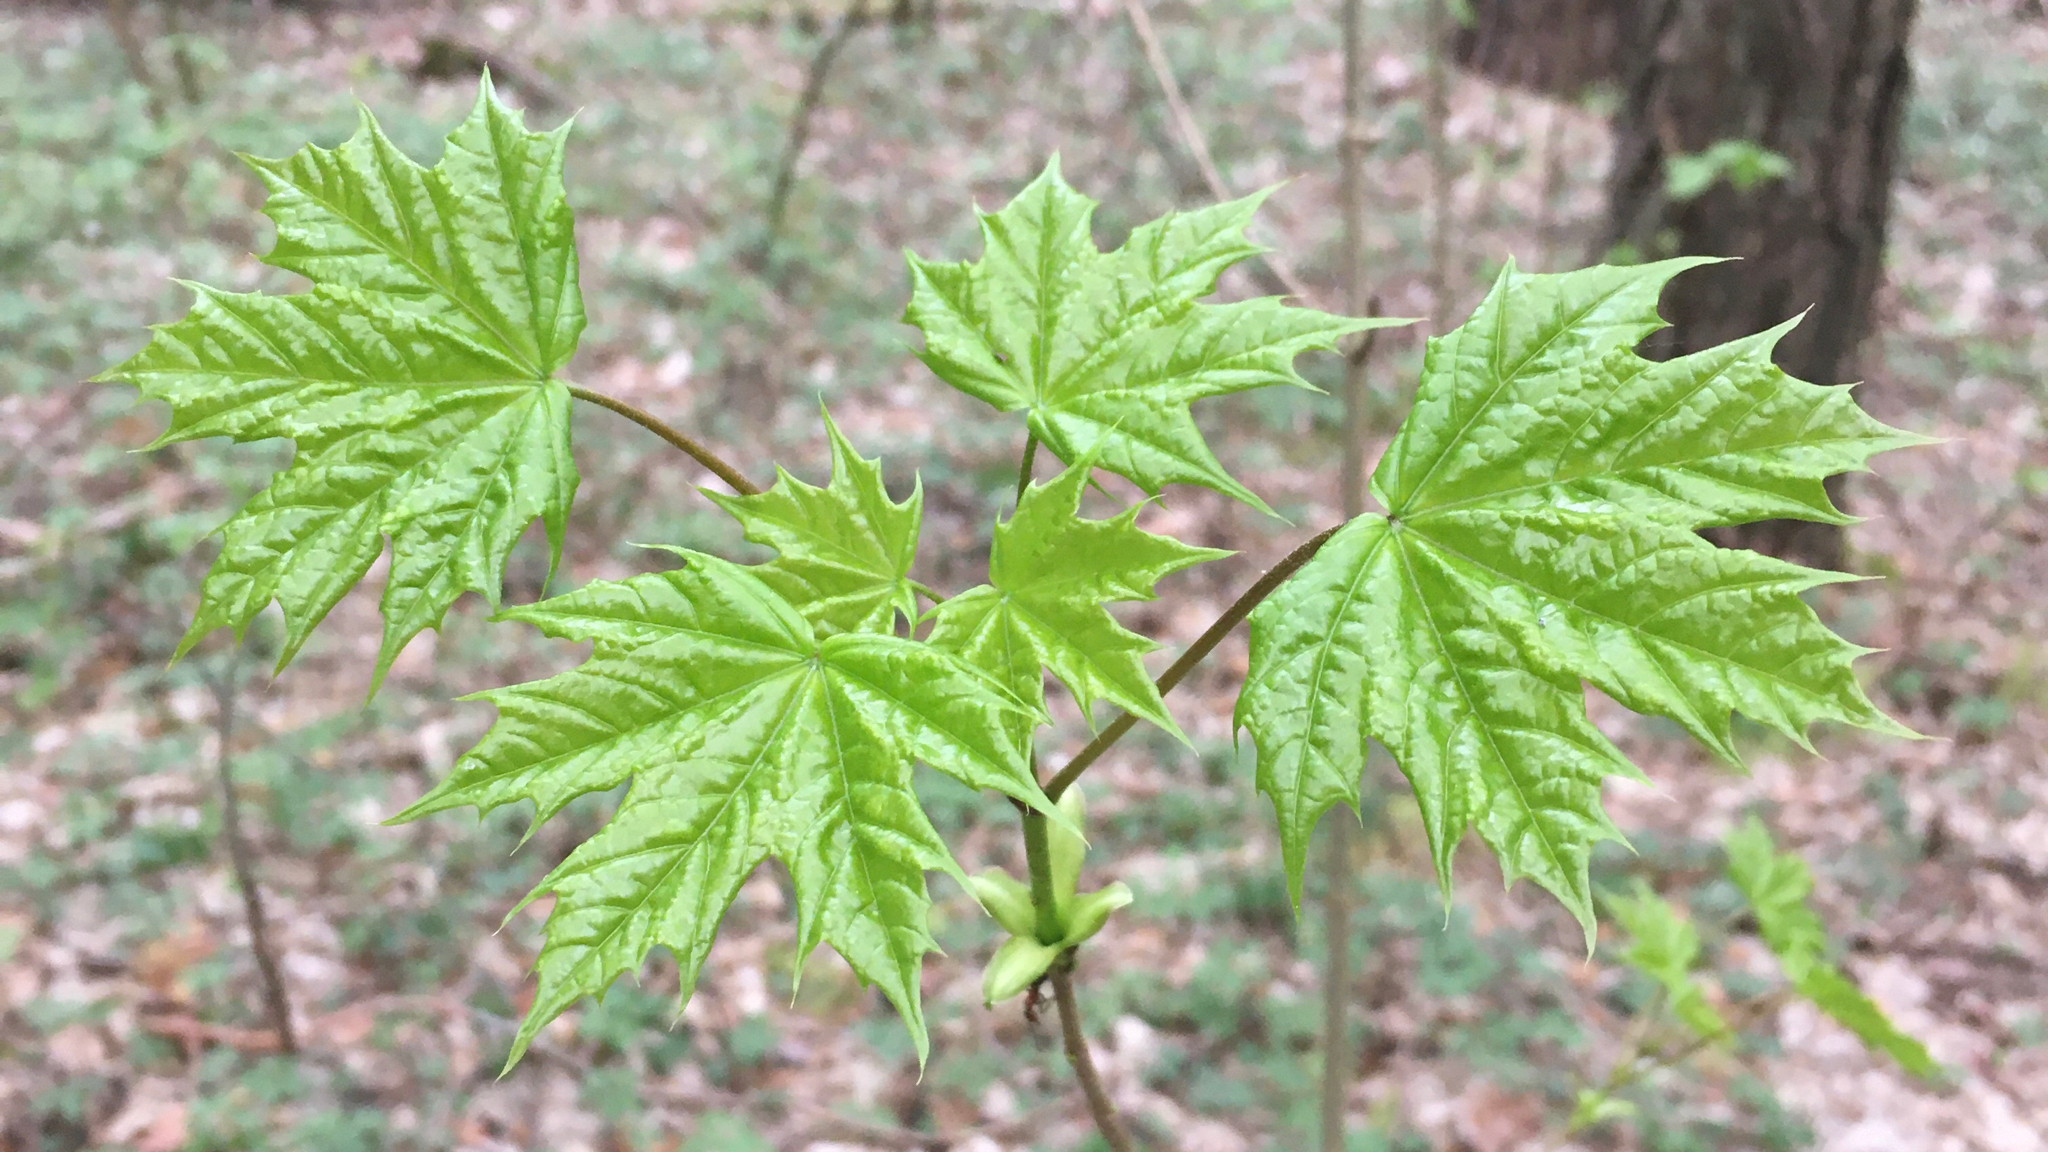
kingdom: Plantae
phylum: Tracheophyta
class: Magnoliopsida
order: Sapindales
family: Sapindaceae
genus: Acer
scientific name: Acer platanoides
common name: Norway maple
